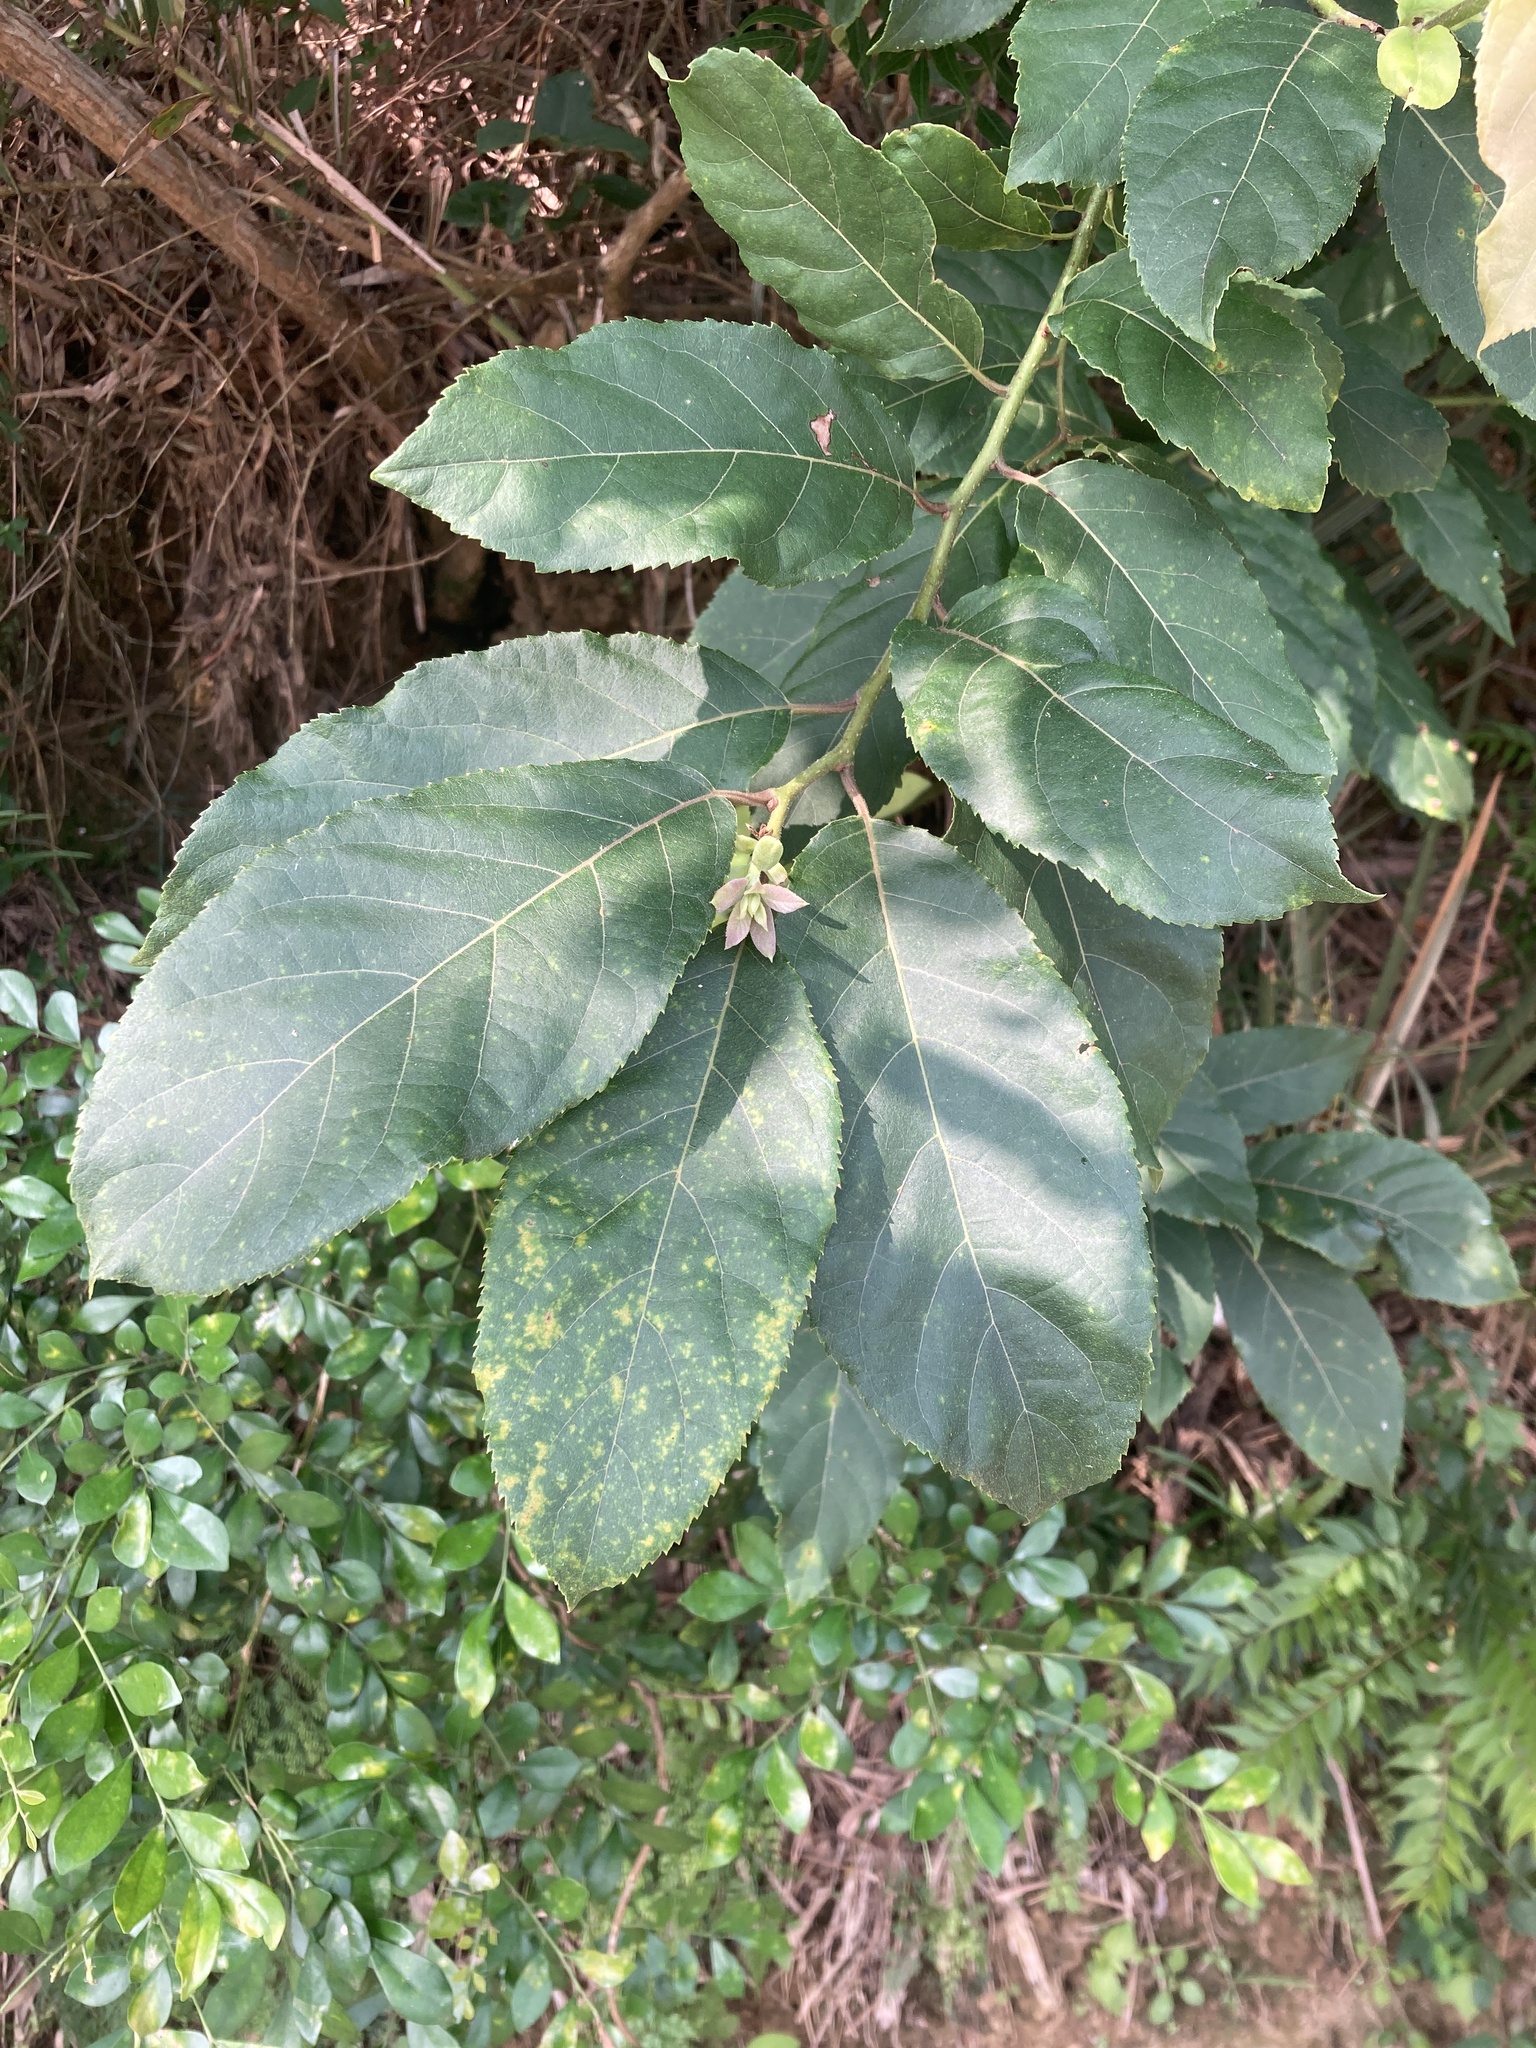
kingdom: Plantae
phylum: Tracheophyta
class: Magnoliopsida
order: Boraginales
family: Ehretiaceae
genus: Ehretia
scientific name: Ehretia acuminata
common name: Kodo wood
